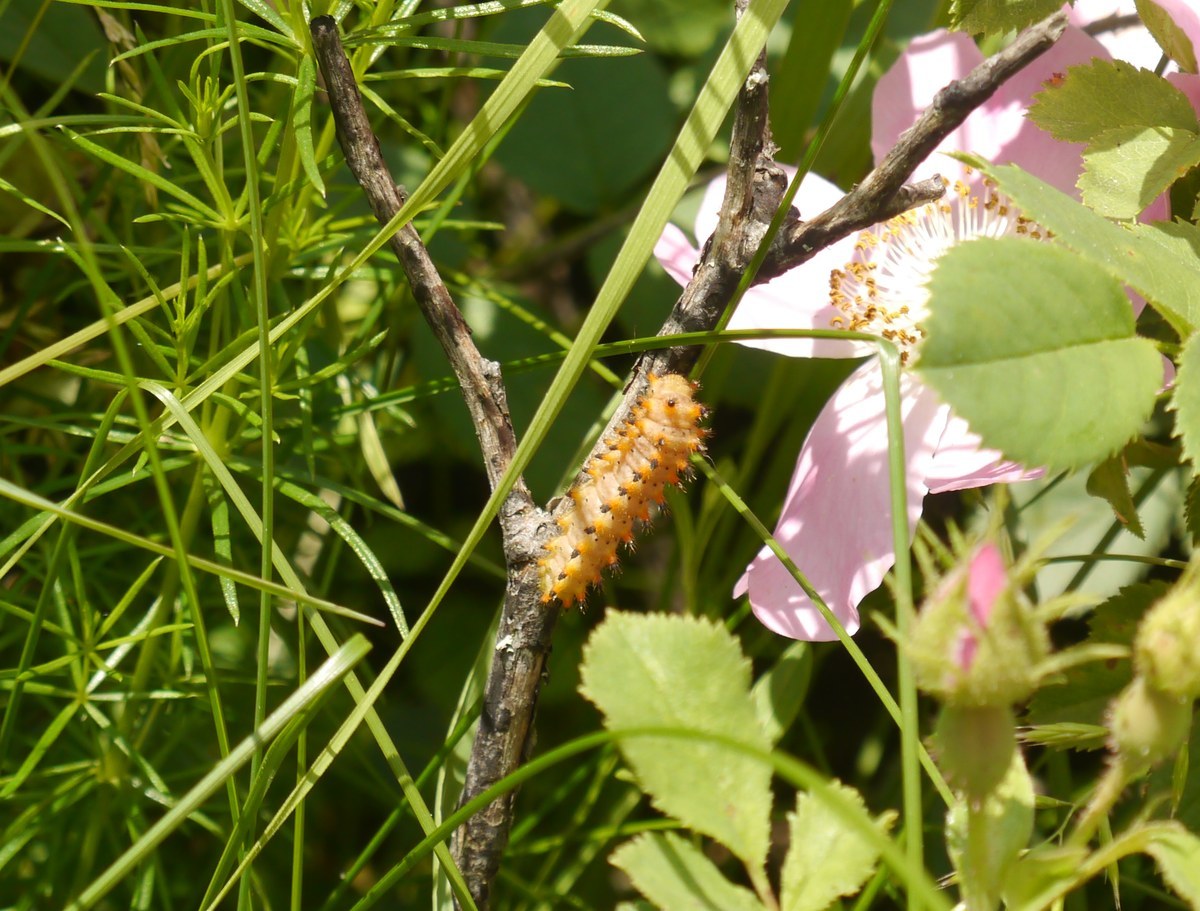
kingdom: Animalia
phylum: Arthropoda
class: Insecta
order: Lepidoptera
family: Papilionidae
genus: Zerynthia
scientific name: Zerynthia polyxena
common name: Southern festoon
